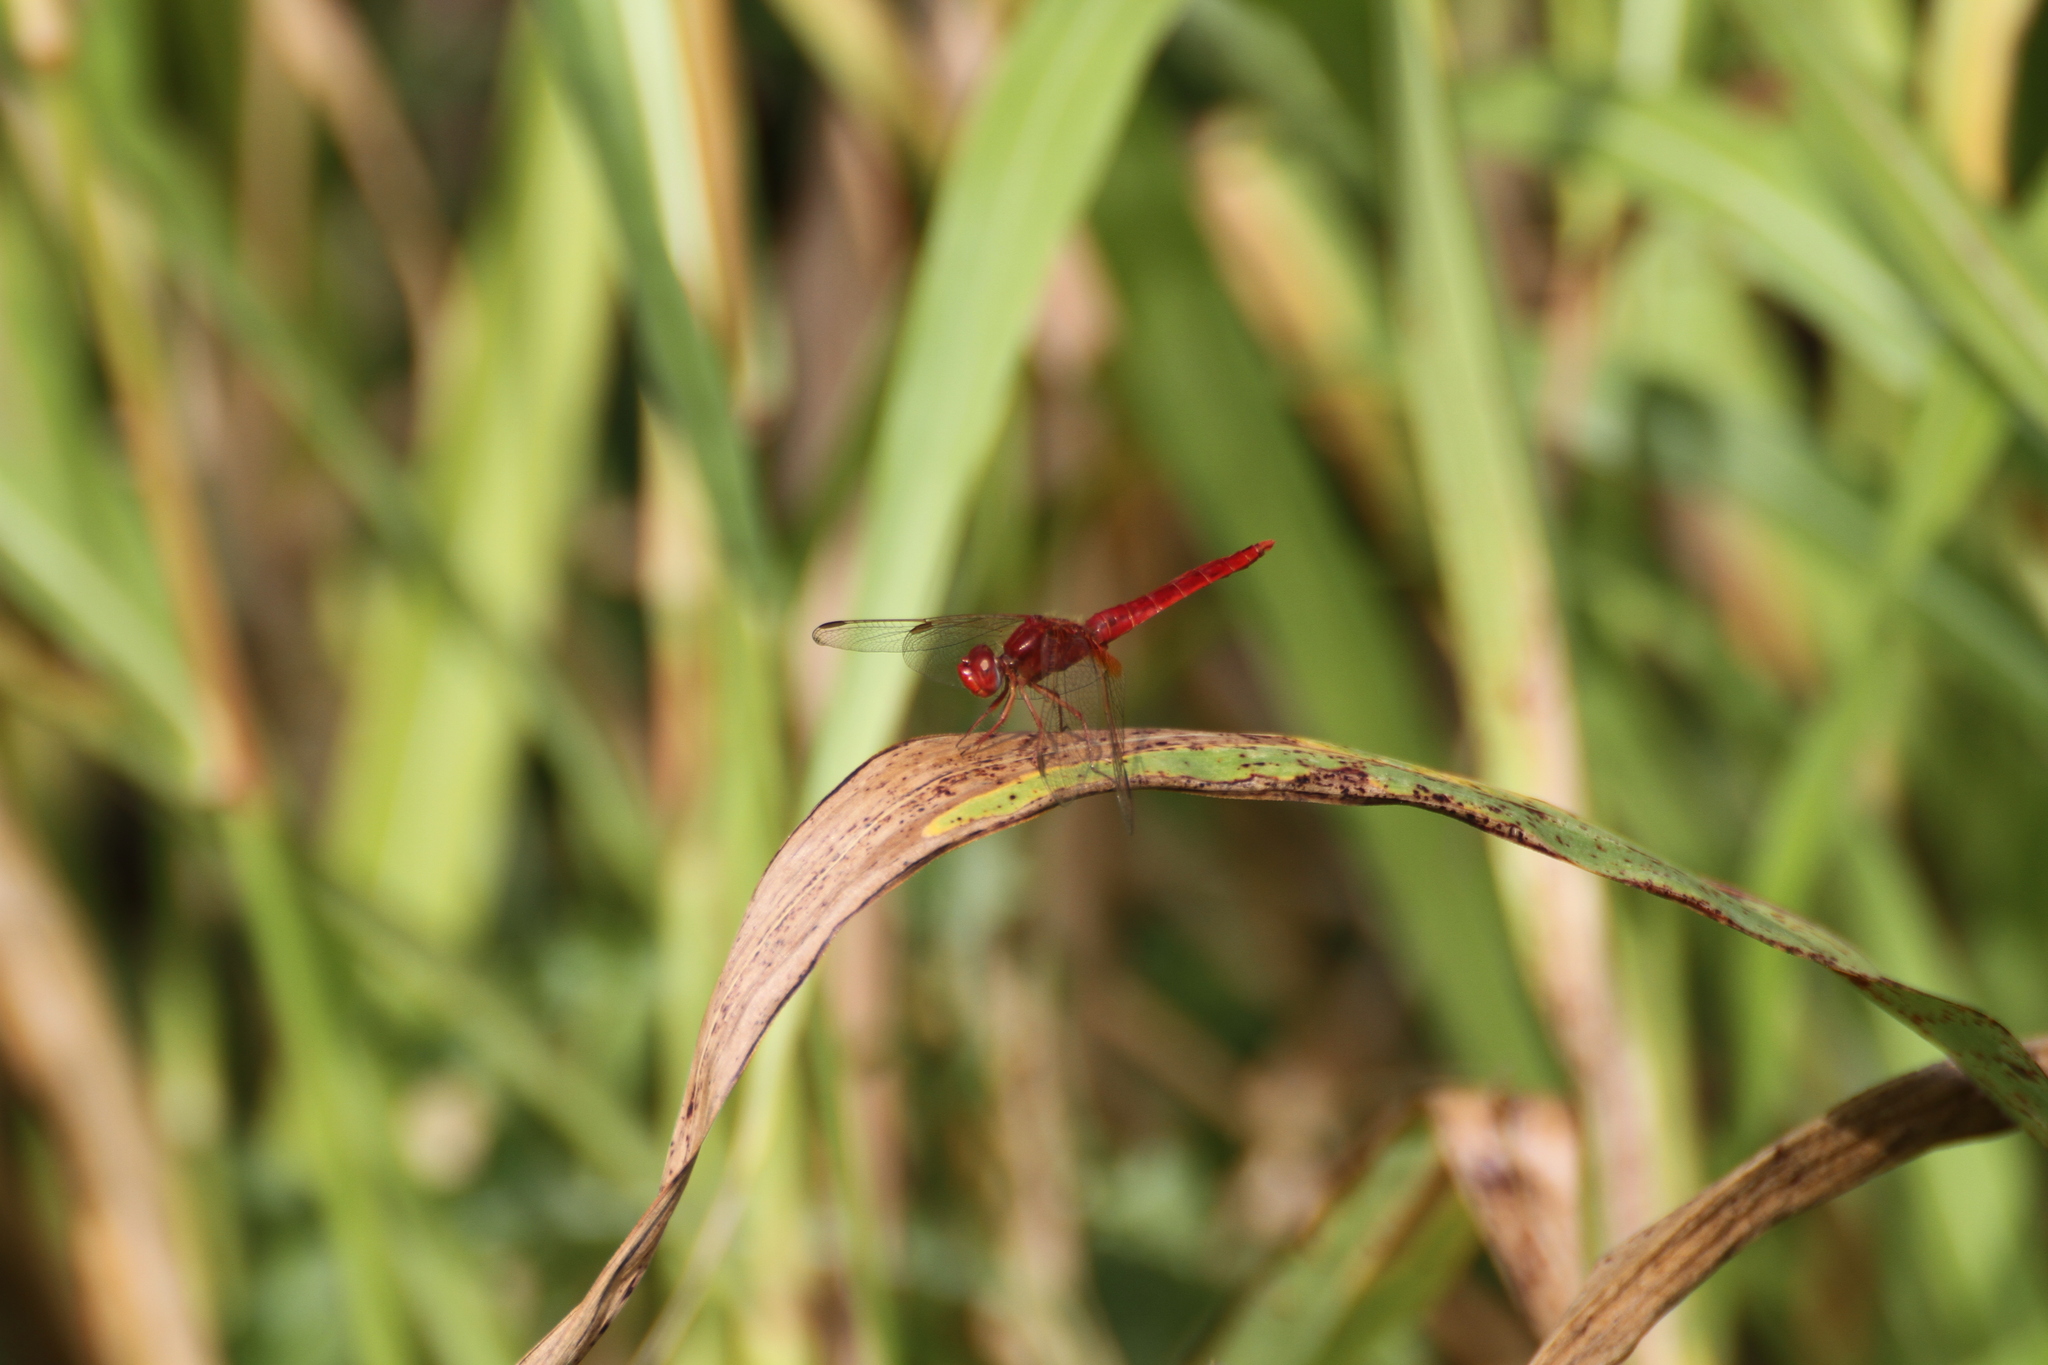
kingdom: Animalia
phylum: Arthropoda
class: Insecta
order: Odonata
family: Libellulidae
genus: Crocothemis
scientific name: Crocothemis erythraea
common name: Scarlet dragonfly
